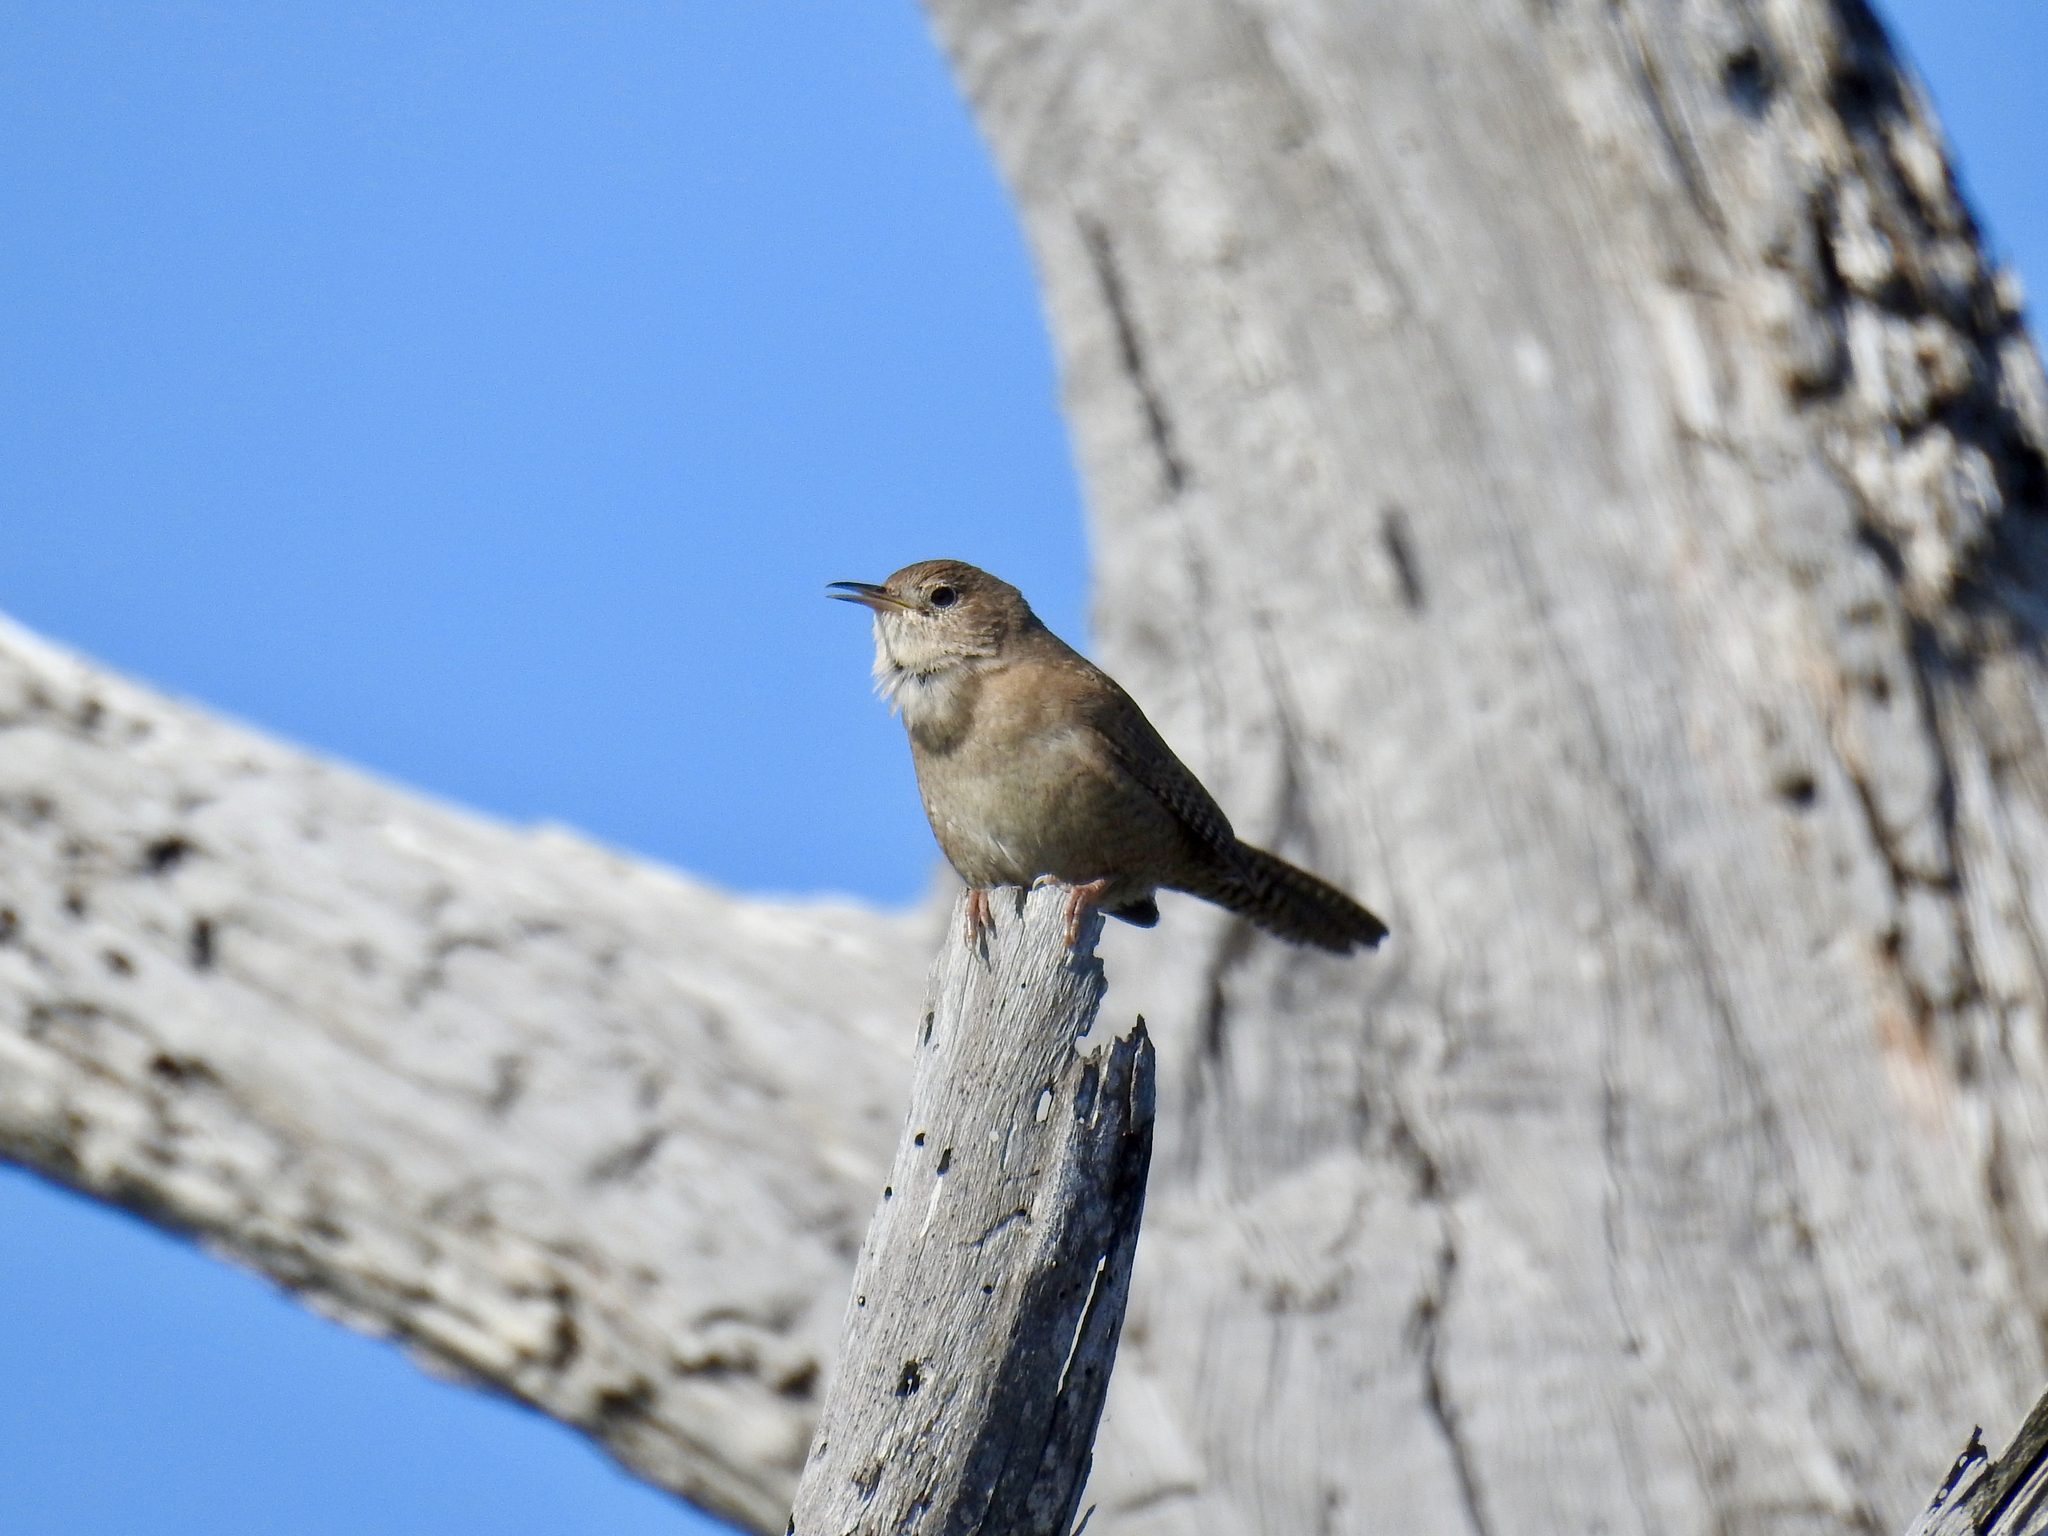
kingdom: Animalia
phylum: Chordata
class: Aves
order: Passeriformes
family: Troglodytidae
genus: Troglodytes
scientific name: Troglodytes aedon
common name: House wren
